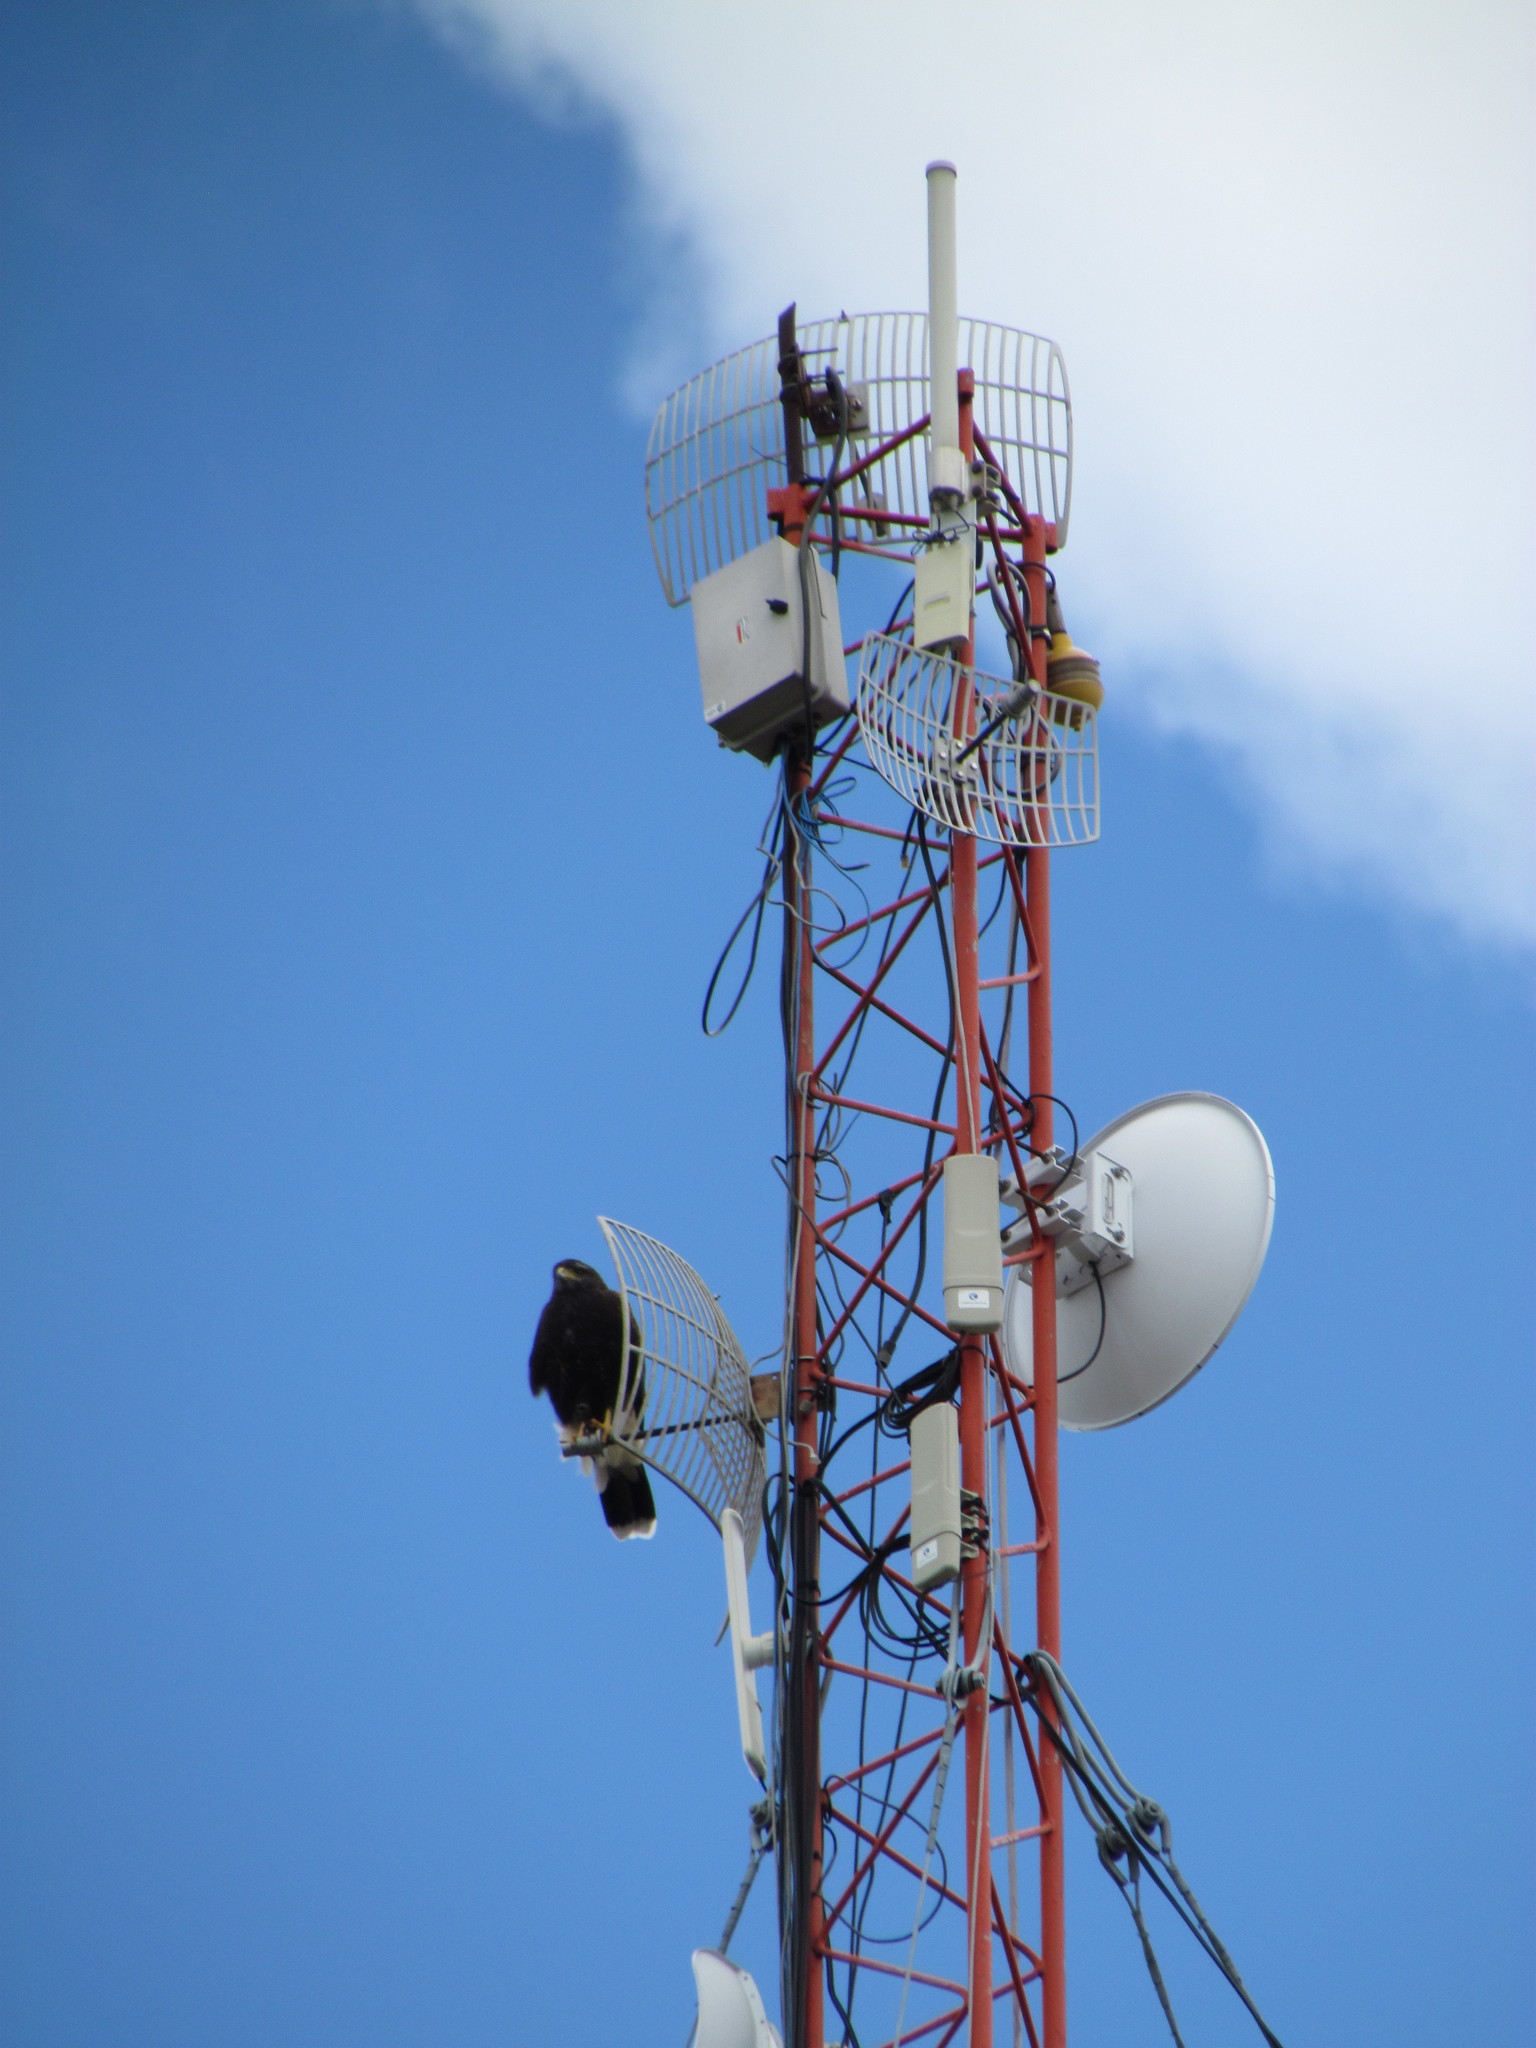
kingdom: Animalia
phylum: Chordata
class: Aves
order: Accipitriformes
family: Accipitridae
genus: Parabuteo
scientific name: Parabuteo unicinctus
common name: Harris's hawk
